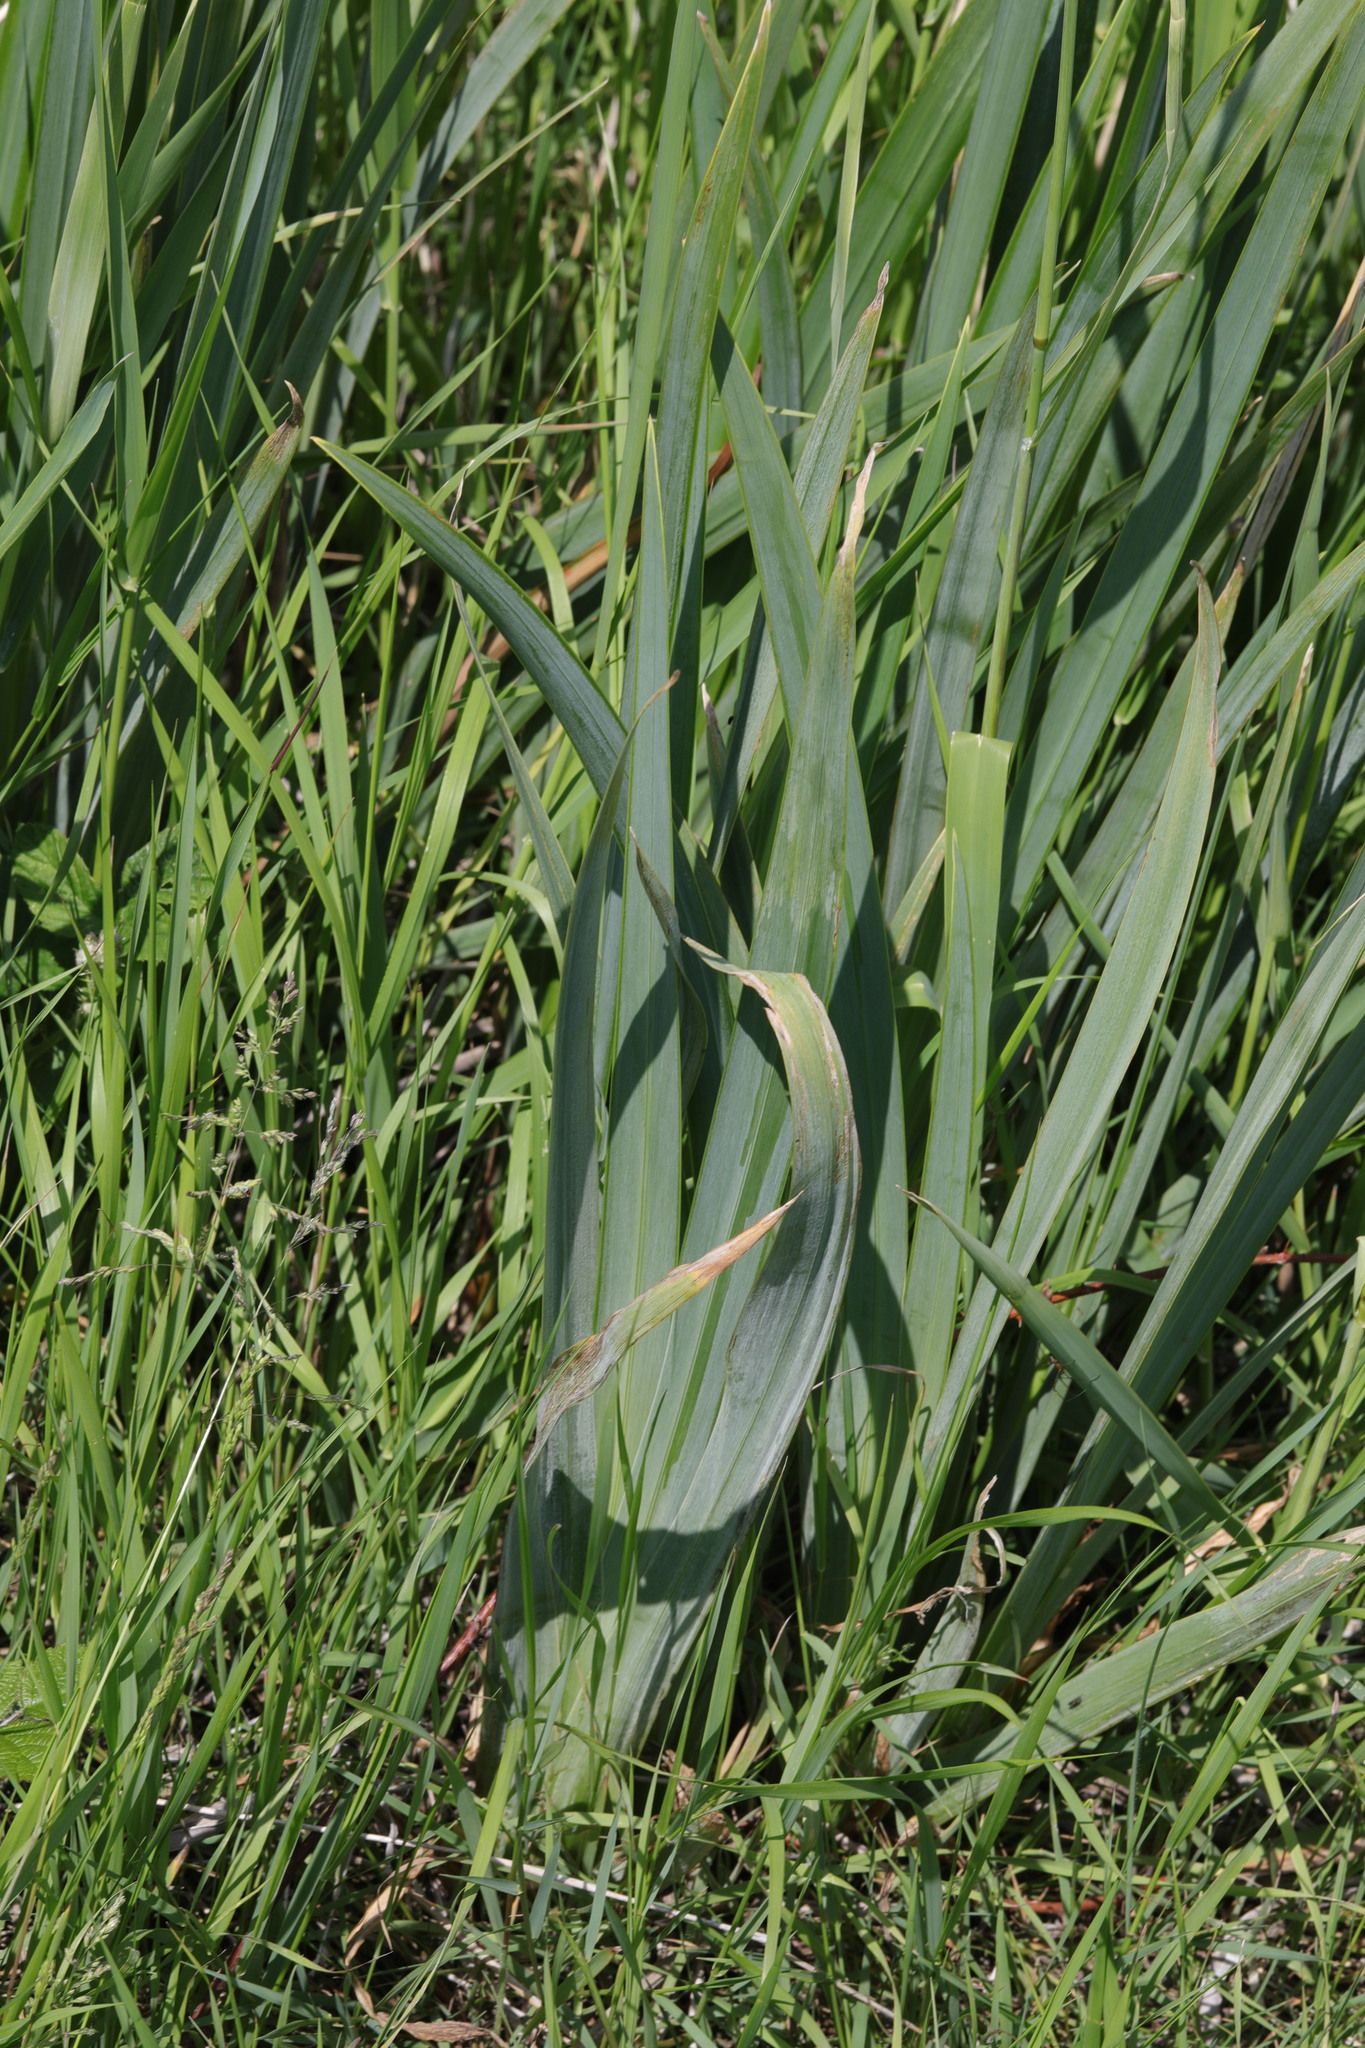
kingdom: Plantae
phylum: Tracheophyta
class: Liliopsida
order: Asparagales
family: Iridaceae
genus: Iris
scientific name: Iris pseudacorus
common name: Yellow flag
